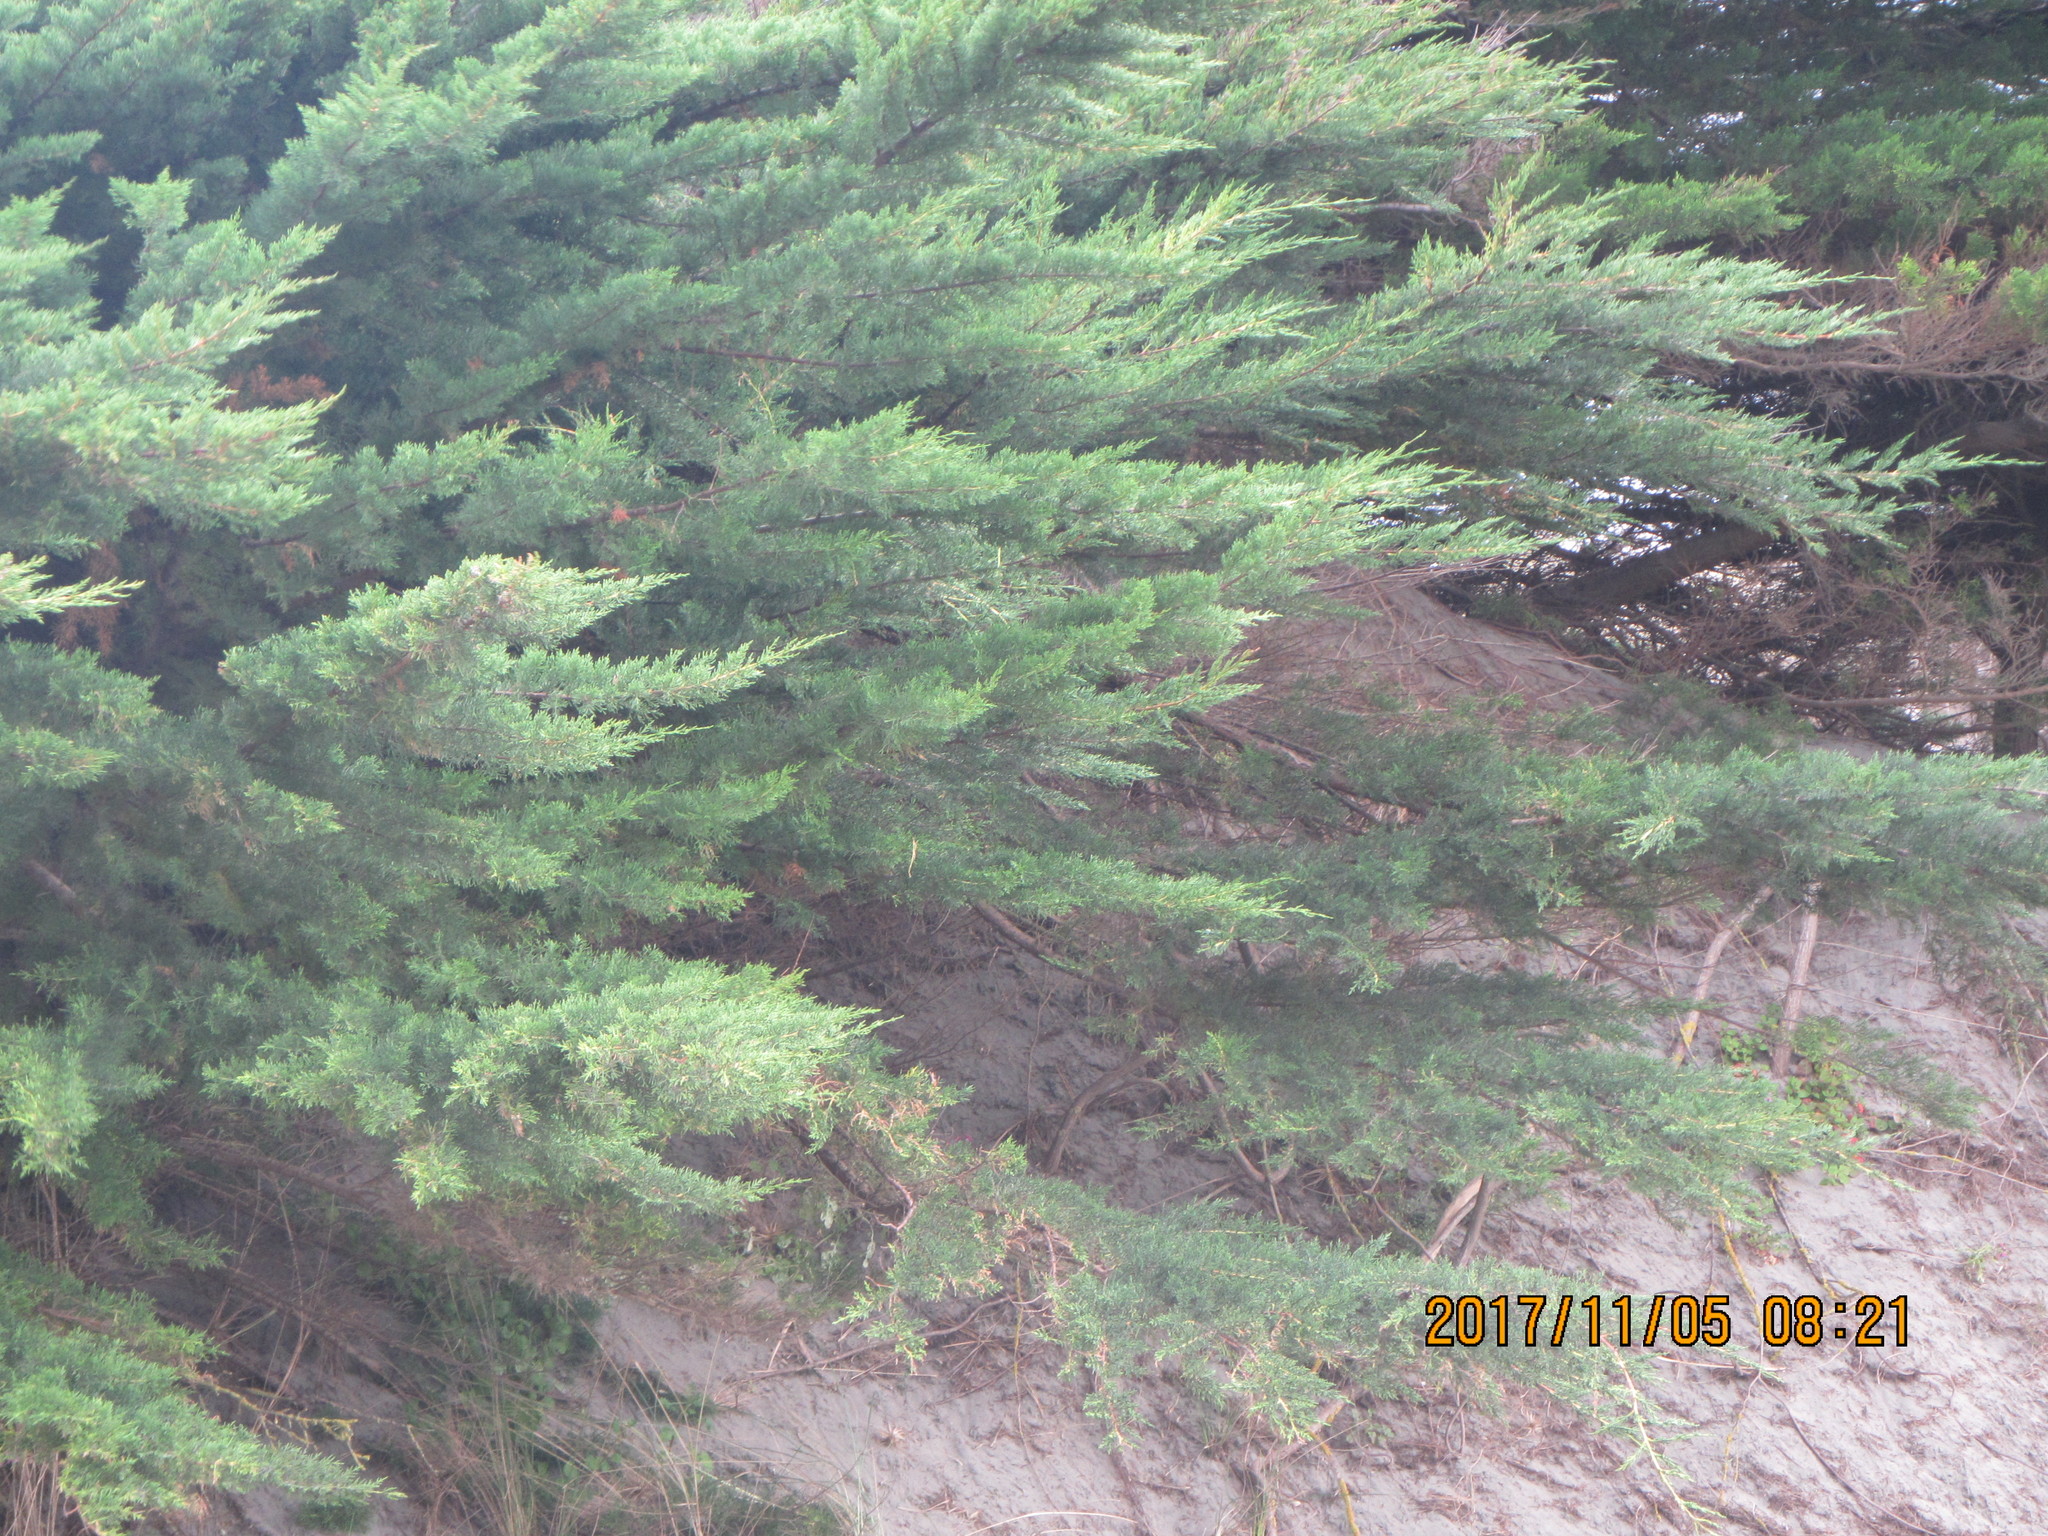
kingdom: Plantae
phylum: Tracheophyta
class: Pinopsida
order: Pinales
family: Cupressaceae
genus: Cupressus
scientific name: Cupressus macrocarpa
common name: Monterey cypress
